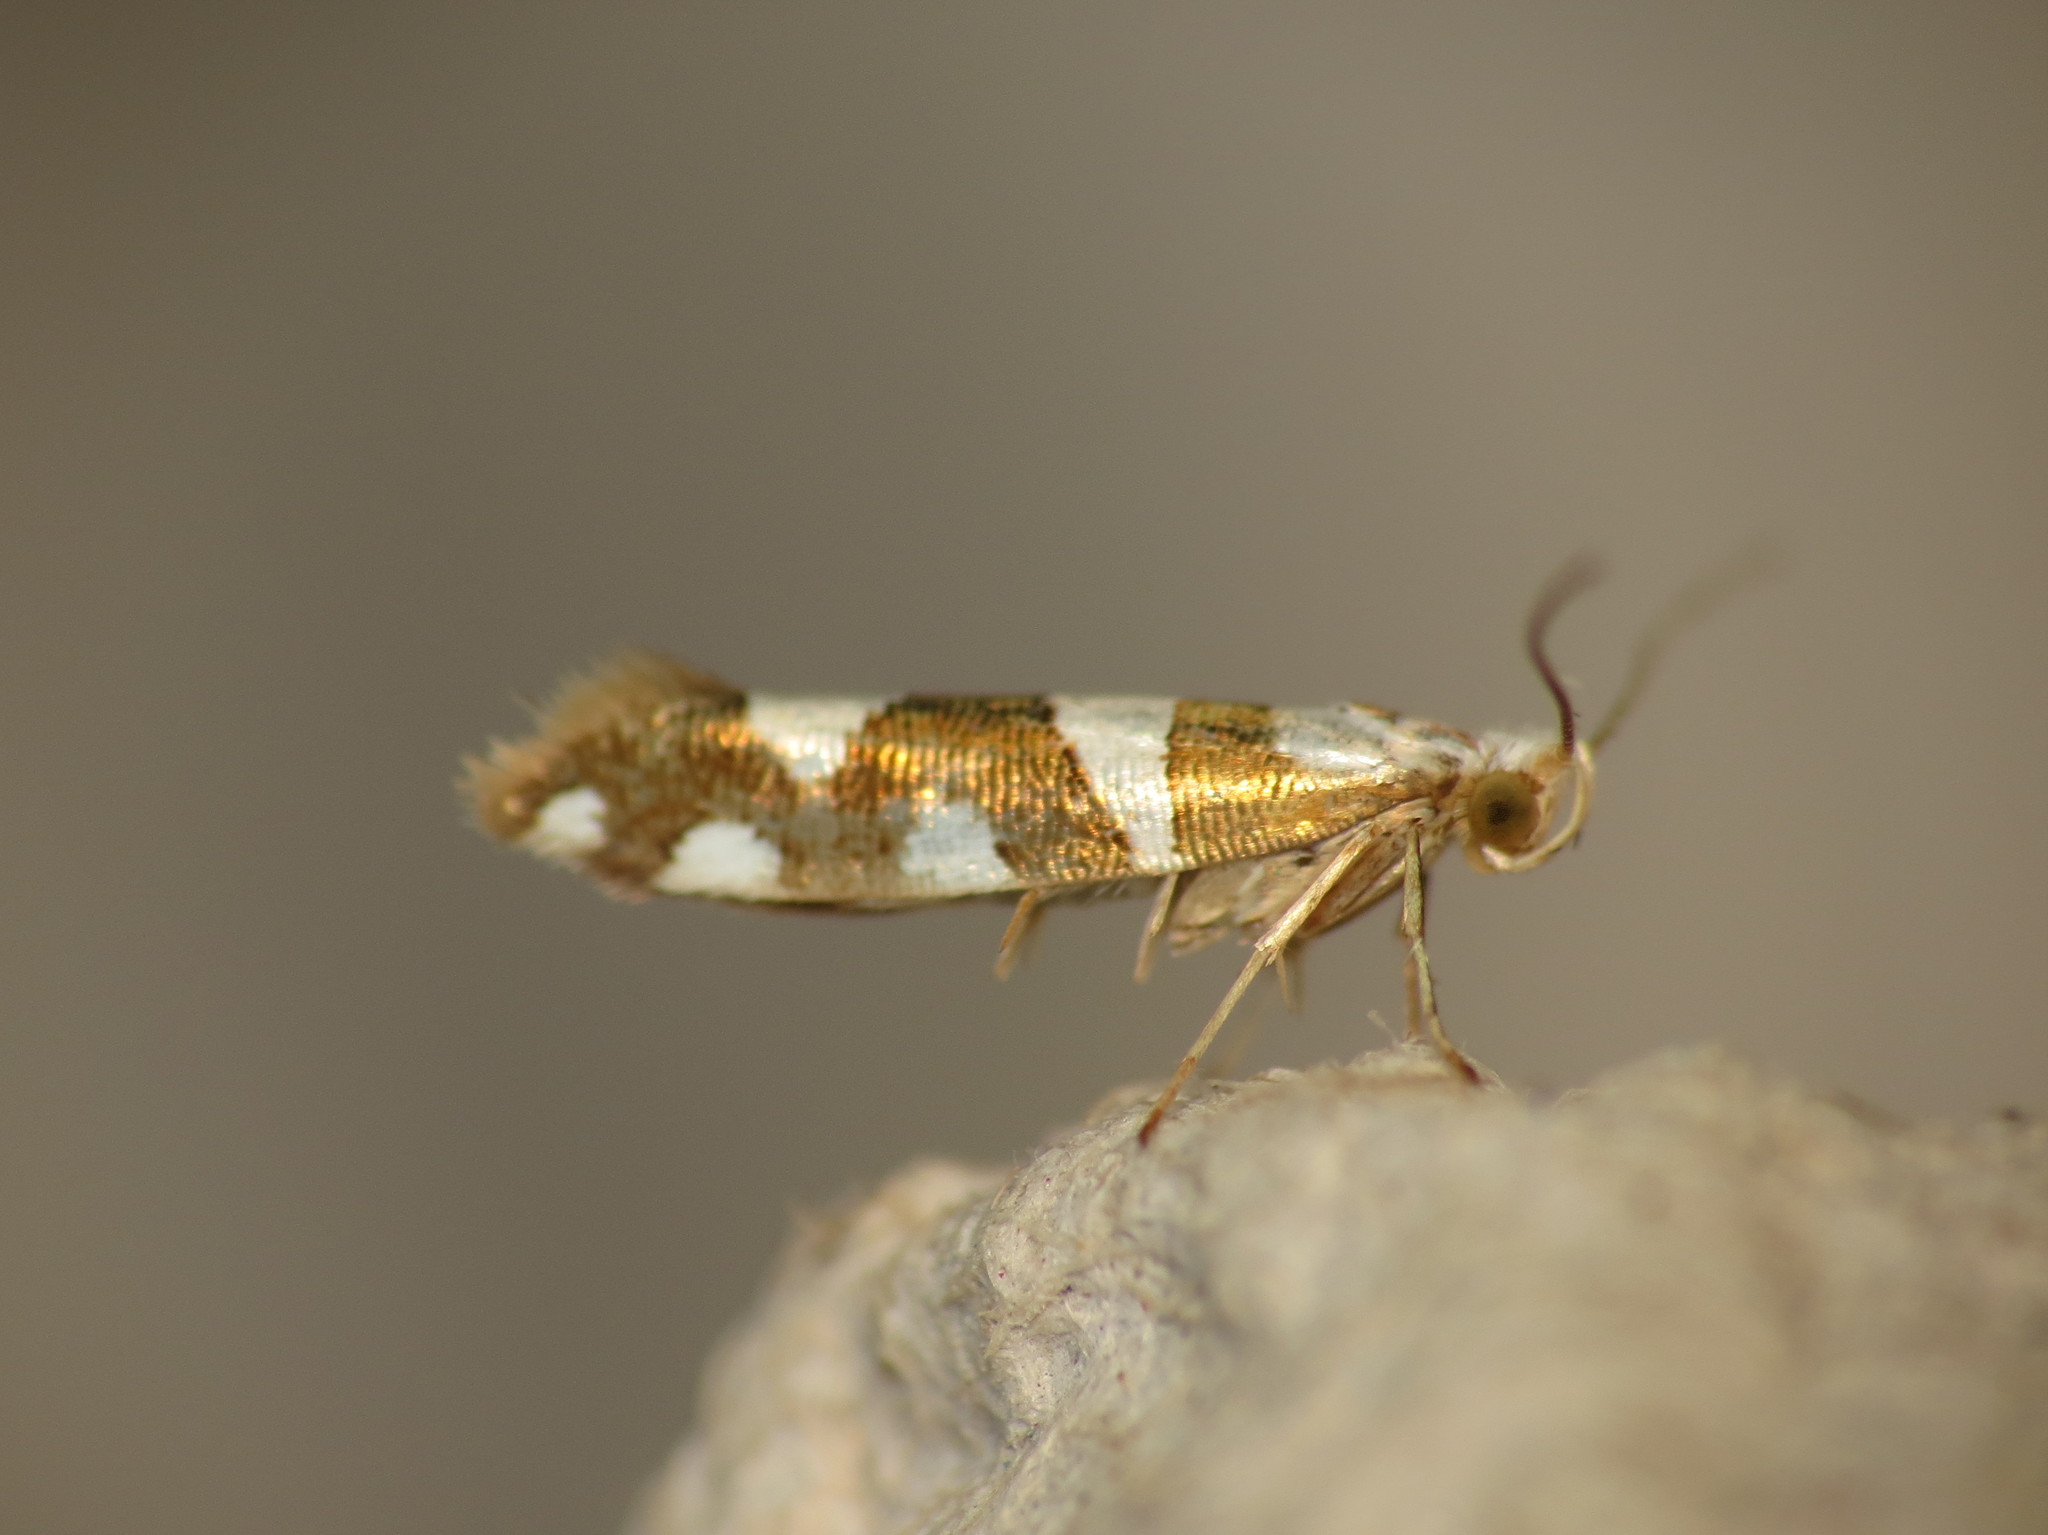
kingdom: Animalia
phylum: Arthropoda
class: Insecta
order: Lepidoptera
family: Argyresthiidae
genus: Argyresthia
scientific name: Argyresthia brockeella
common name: Gold-ribbon argent
